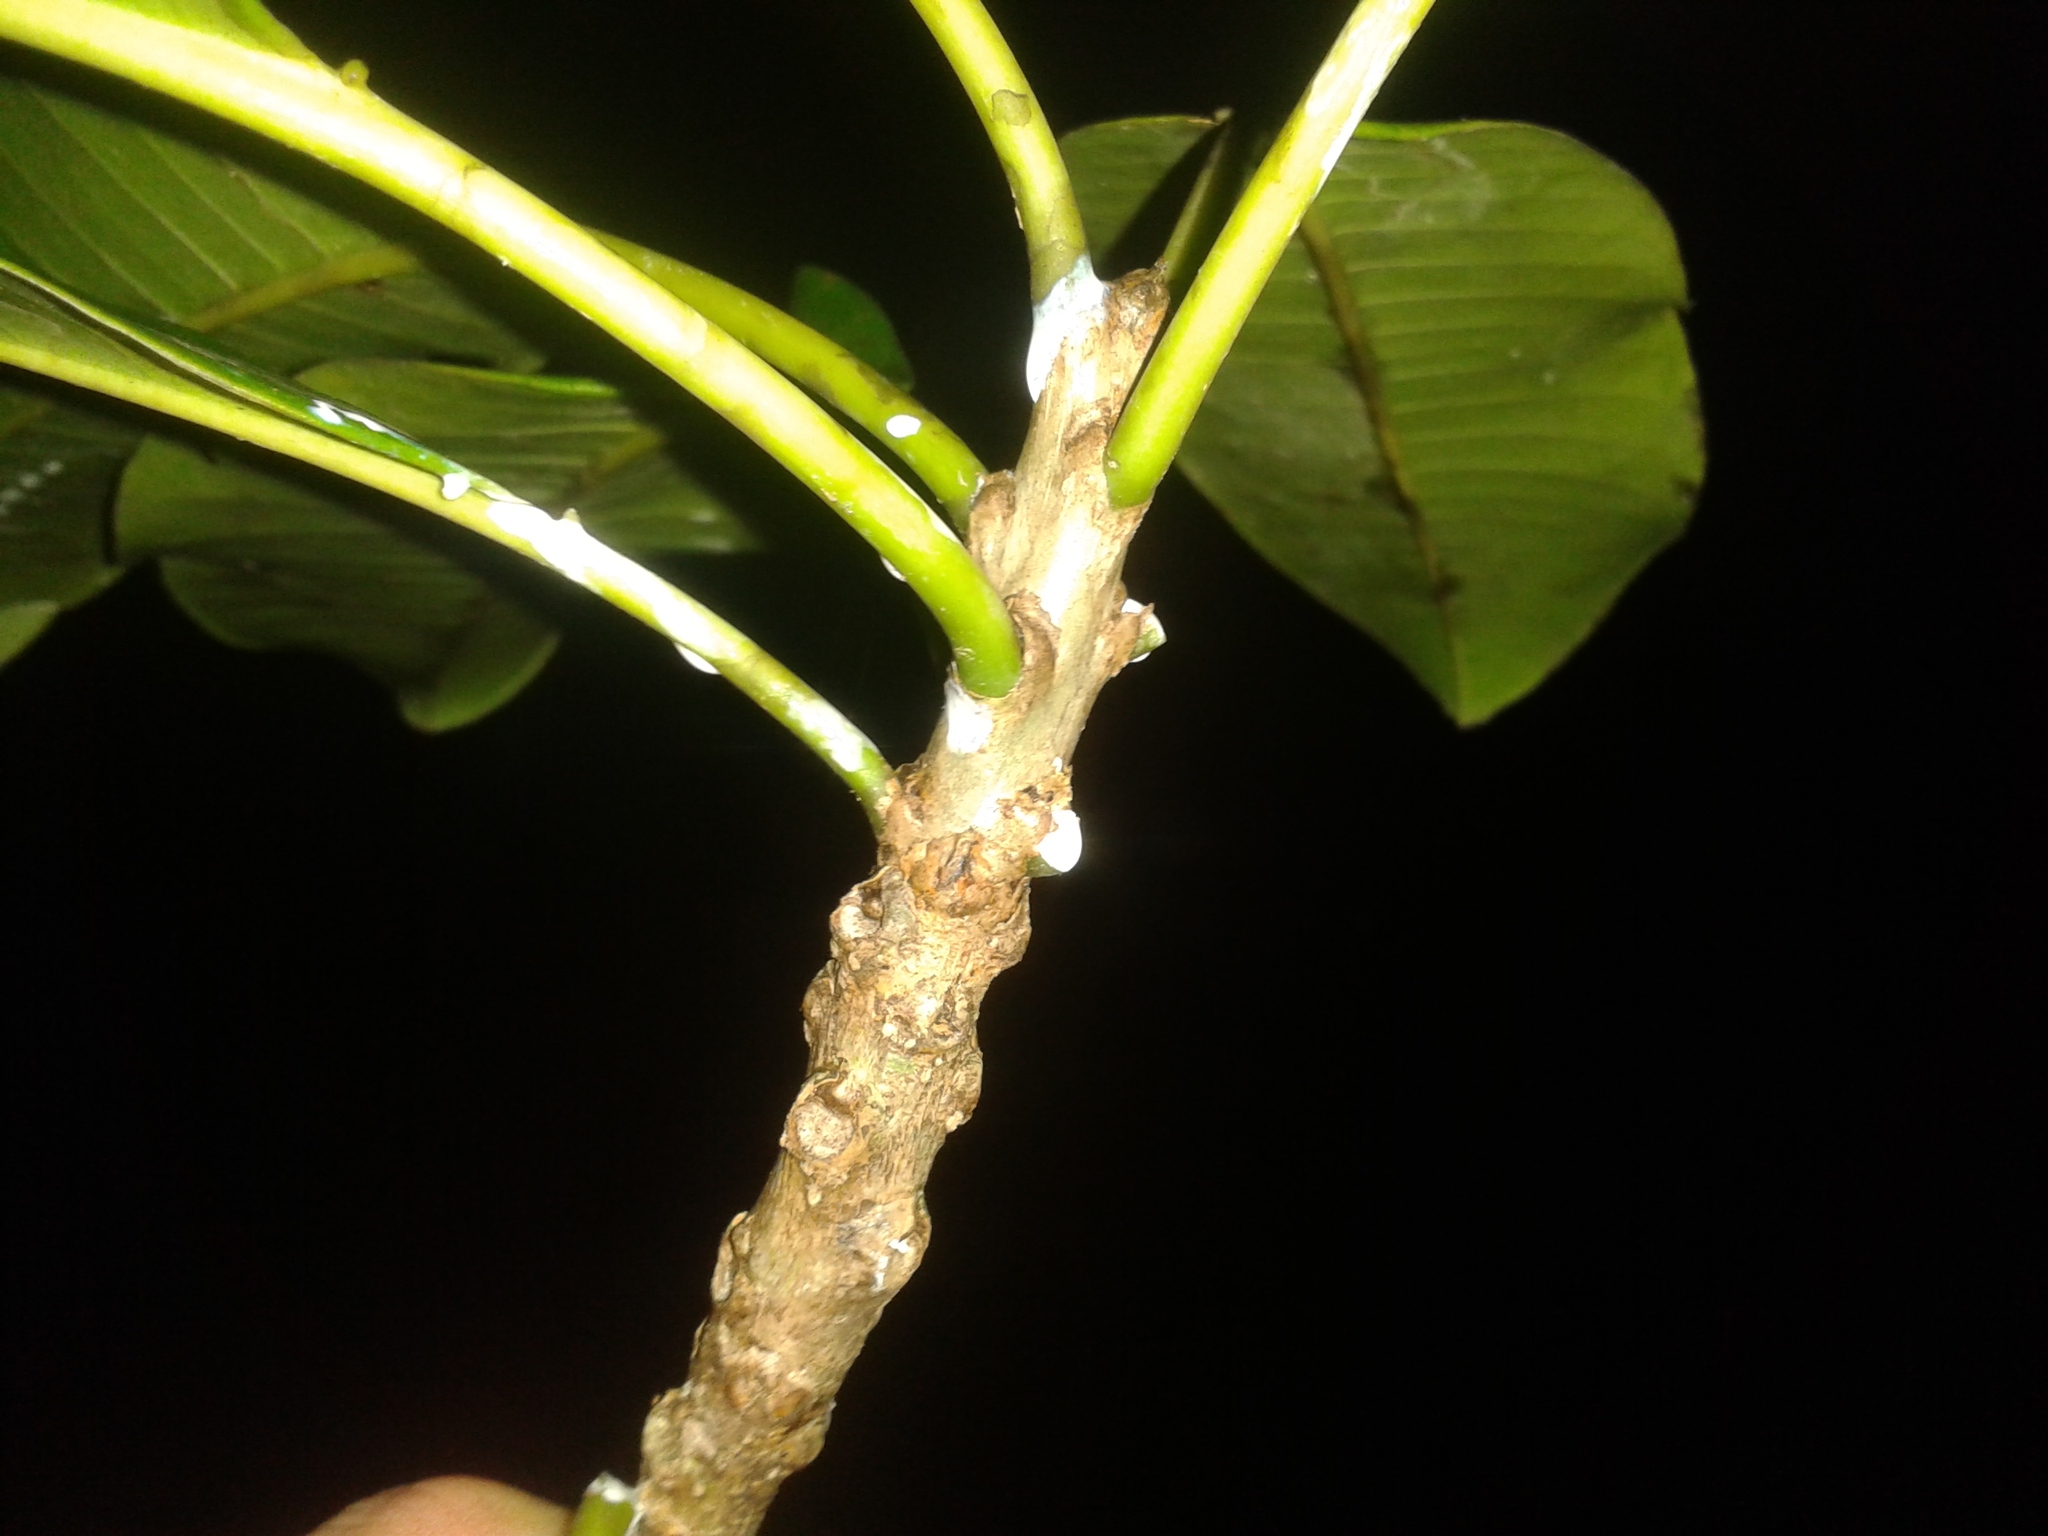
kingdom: Plantae
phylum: Tracheophyta
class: Magnoliopsida
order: Malpighiales
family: Euphorbiaceae
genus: Sapium
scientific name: Sapium allenii
